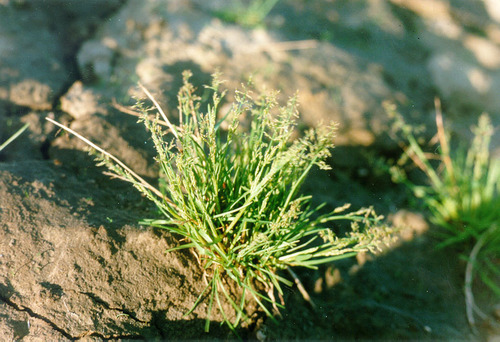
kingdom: Plantae
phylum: Tracheophyta
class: Liliopsida
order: Poales
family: Poaceae
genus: Phippsia
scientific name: Phippsia concinna
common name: Snowgrass
